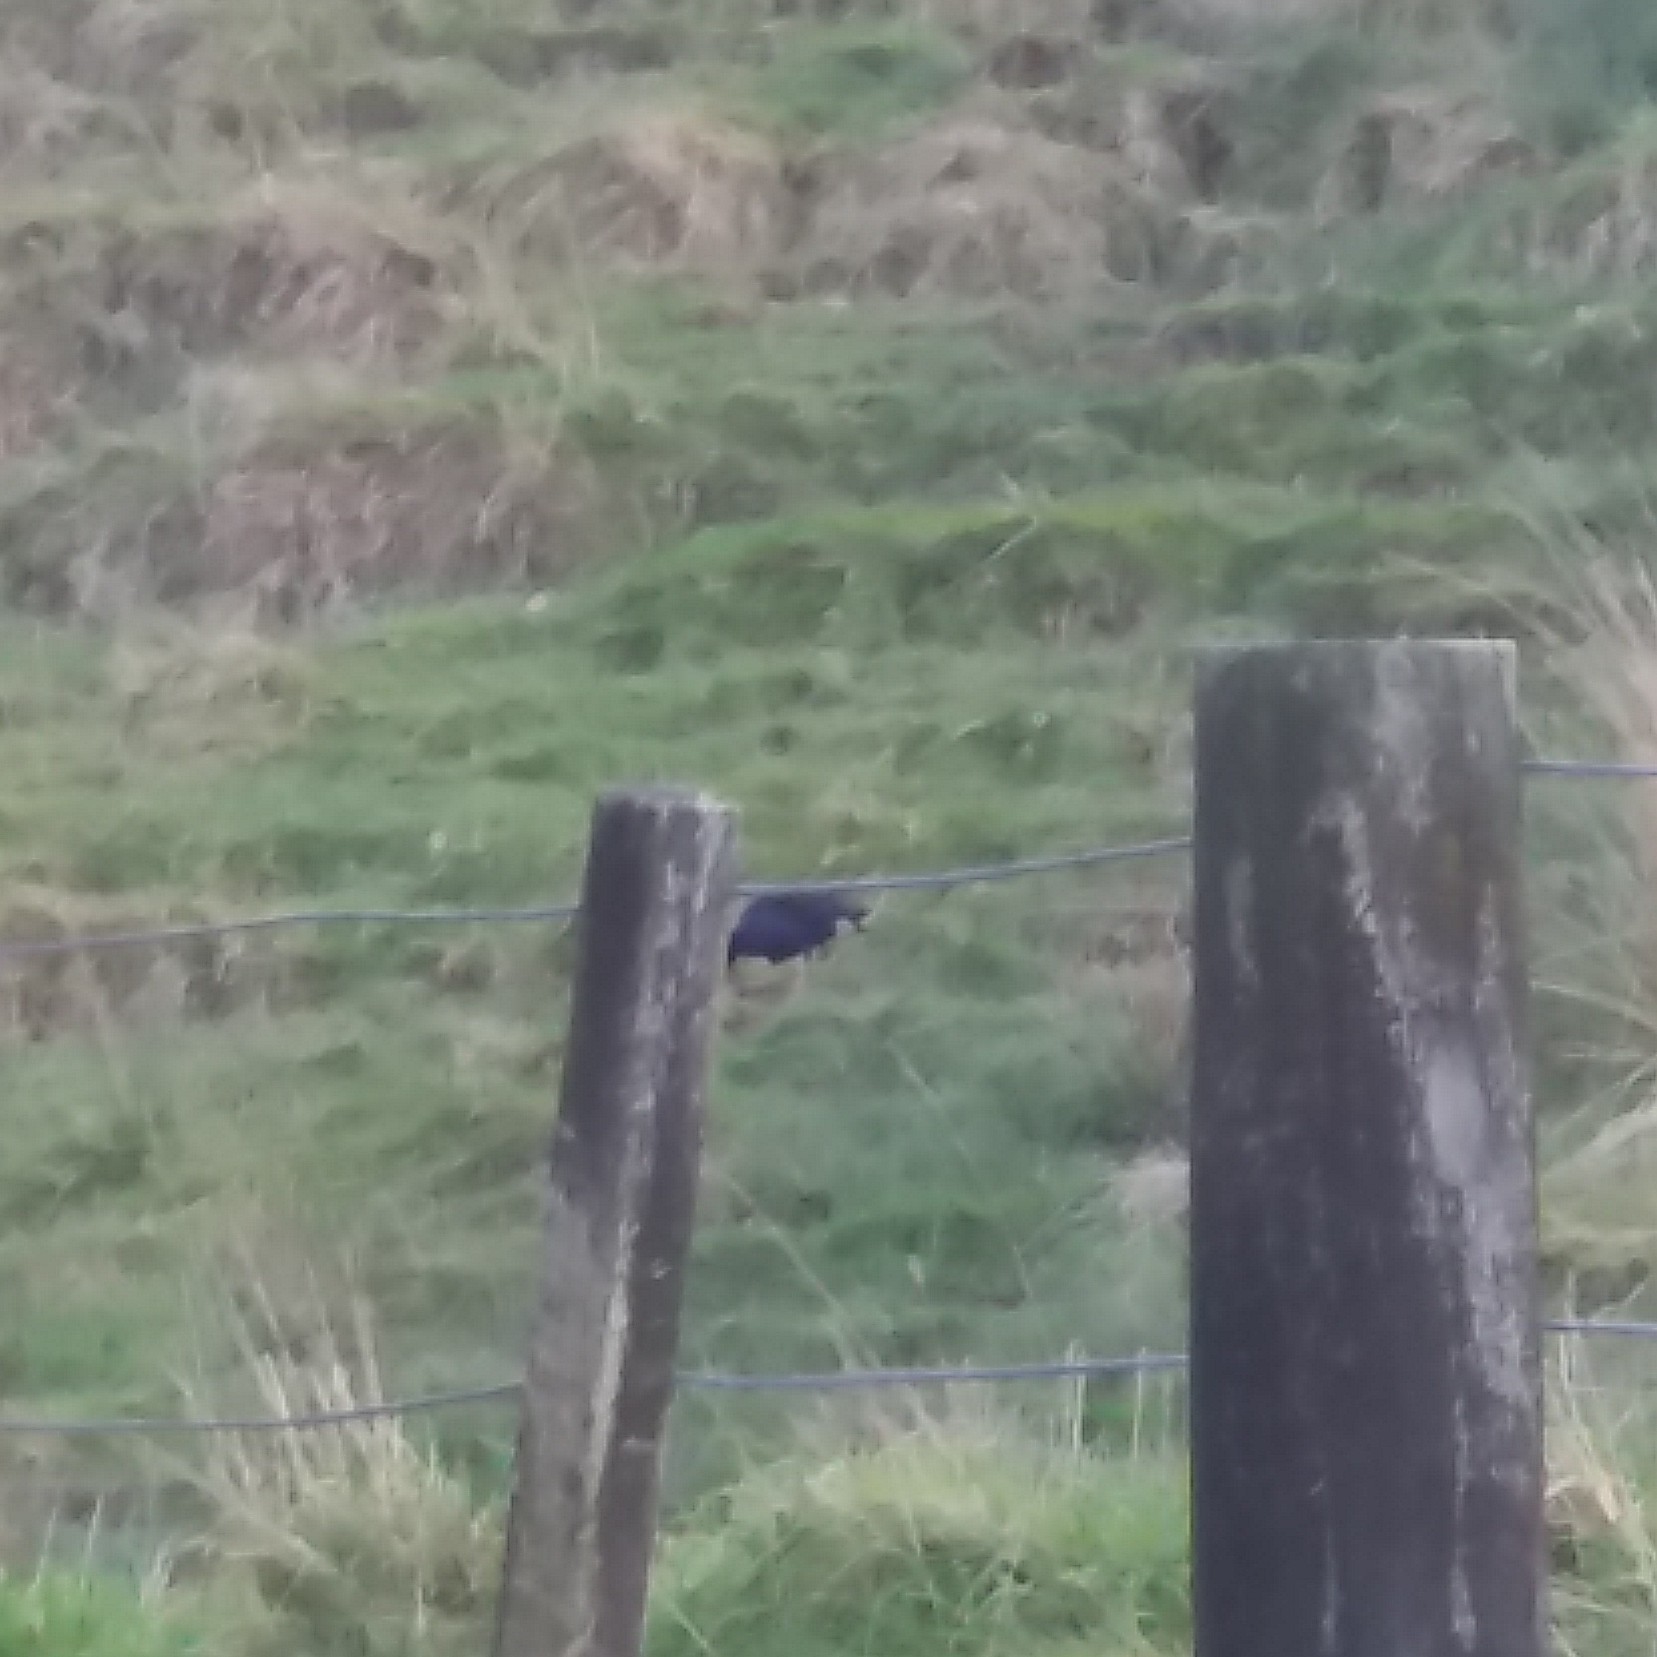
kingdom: Animalia
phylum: Chordata
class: Aves
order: Gruiformes
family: Rallidae
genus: Porphyrio
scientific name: Porphyrio melanotus
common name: Australasian swamphen
